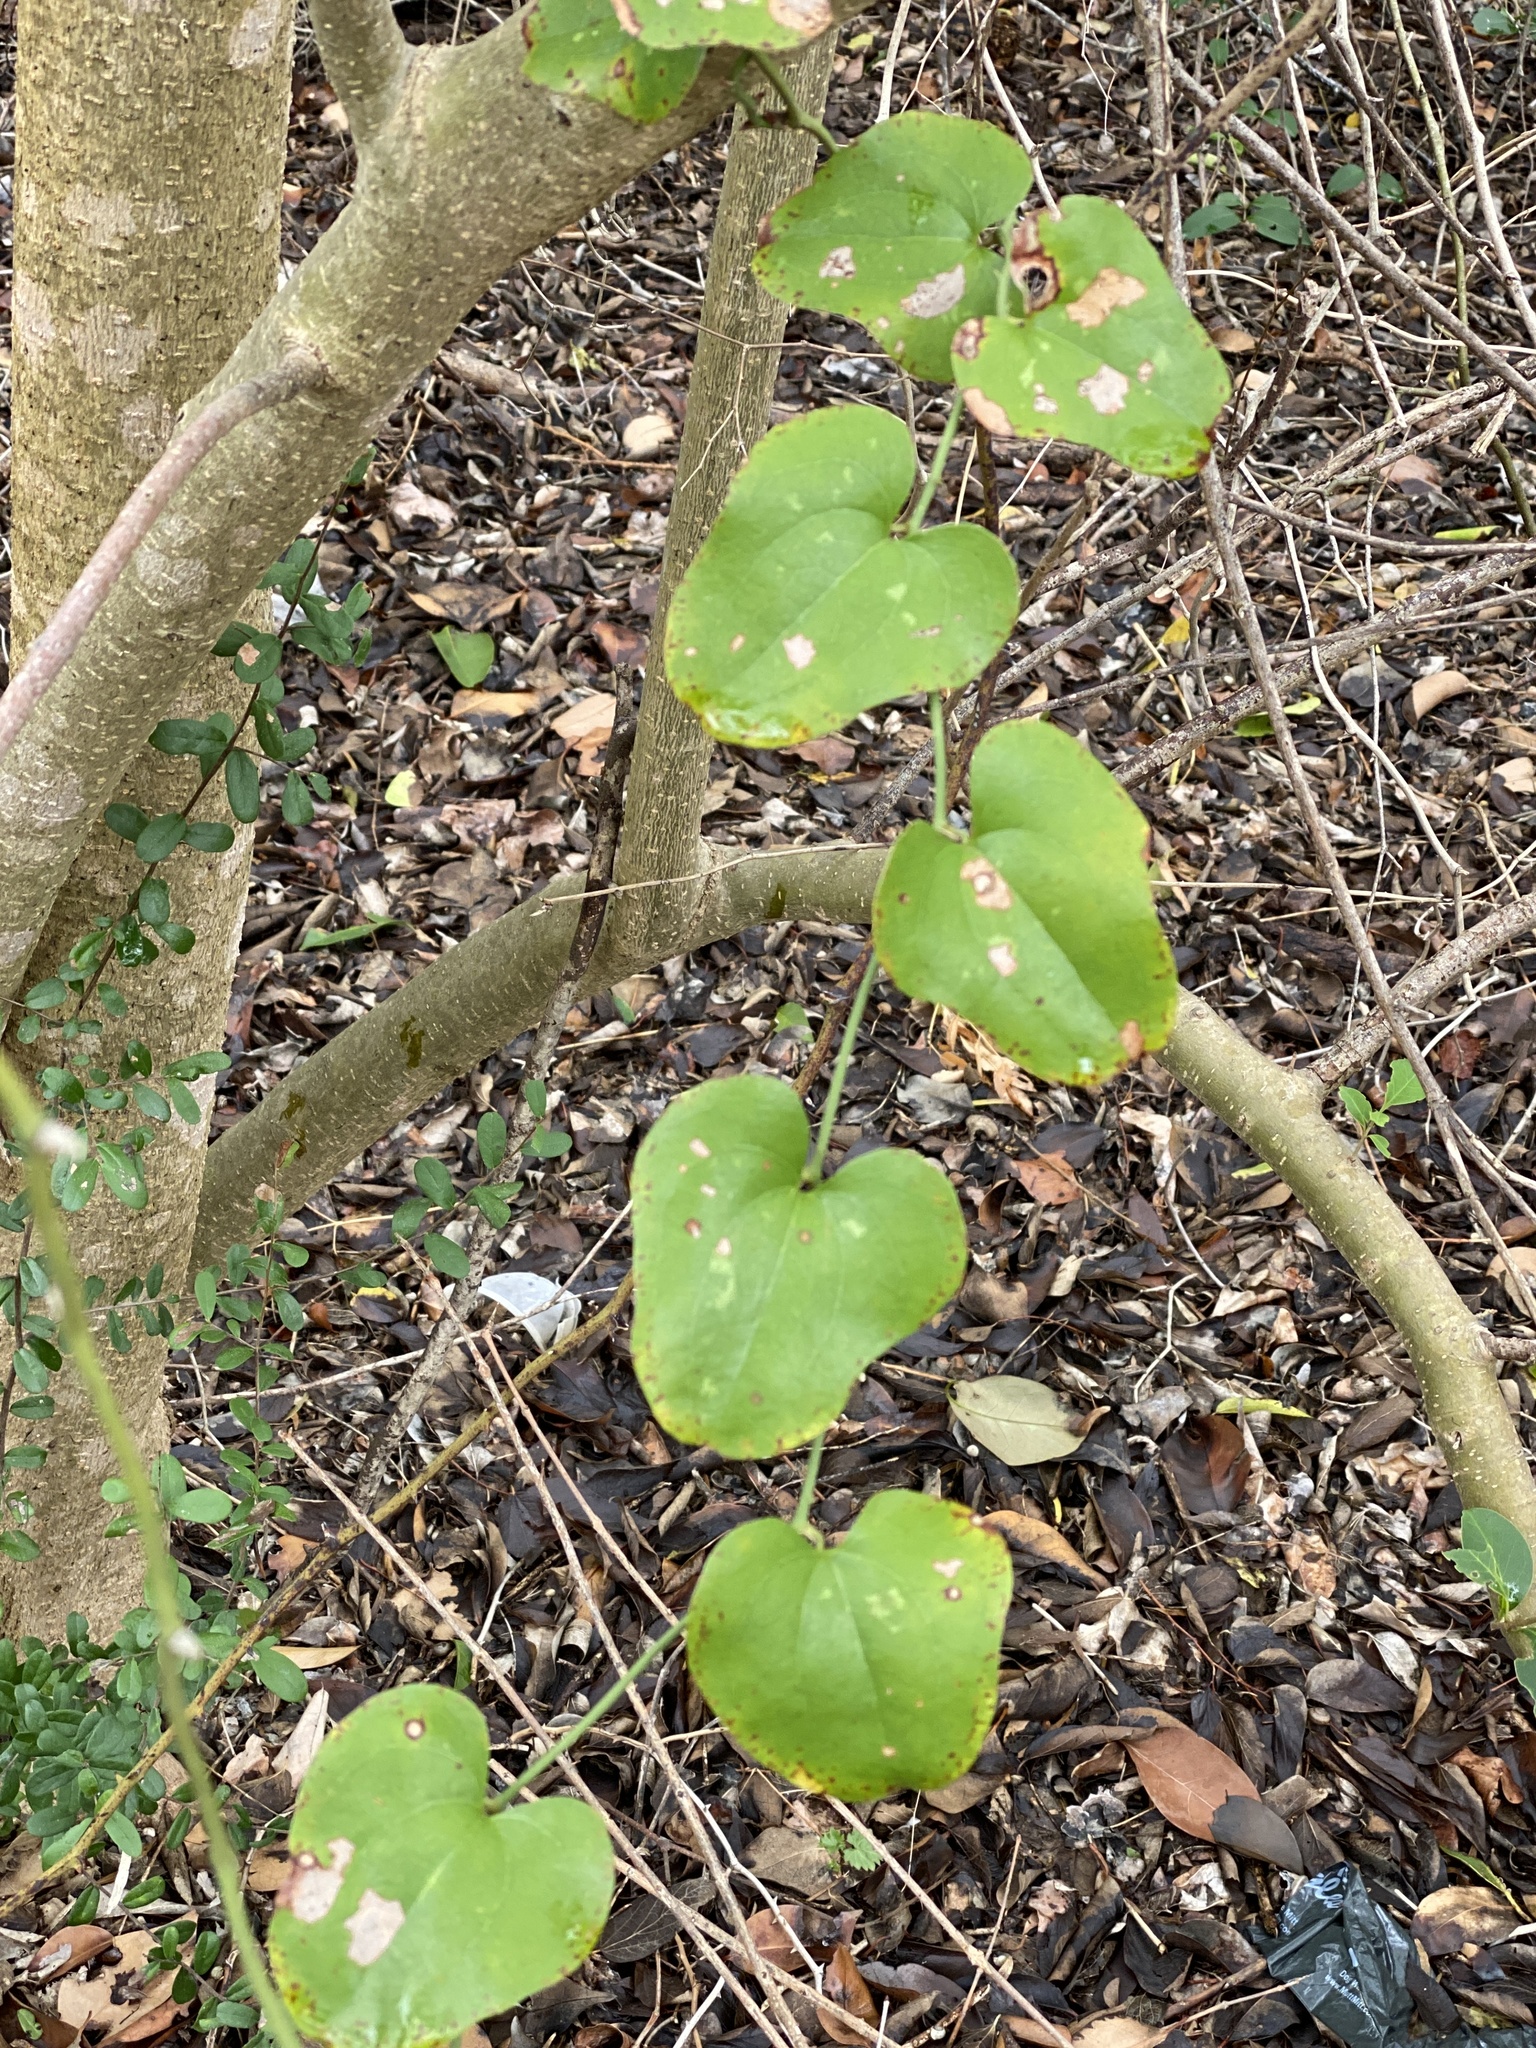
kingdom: Plantae
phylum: Tracheophyta
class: Liliopsida
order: Liliales
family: Smilacaceae
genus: Smilax
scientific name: Smilax bona-nox
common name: Catbrier
